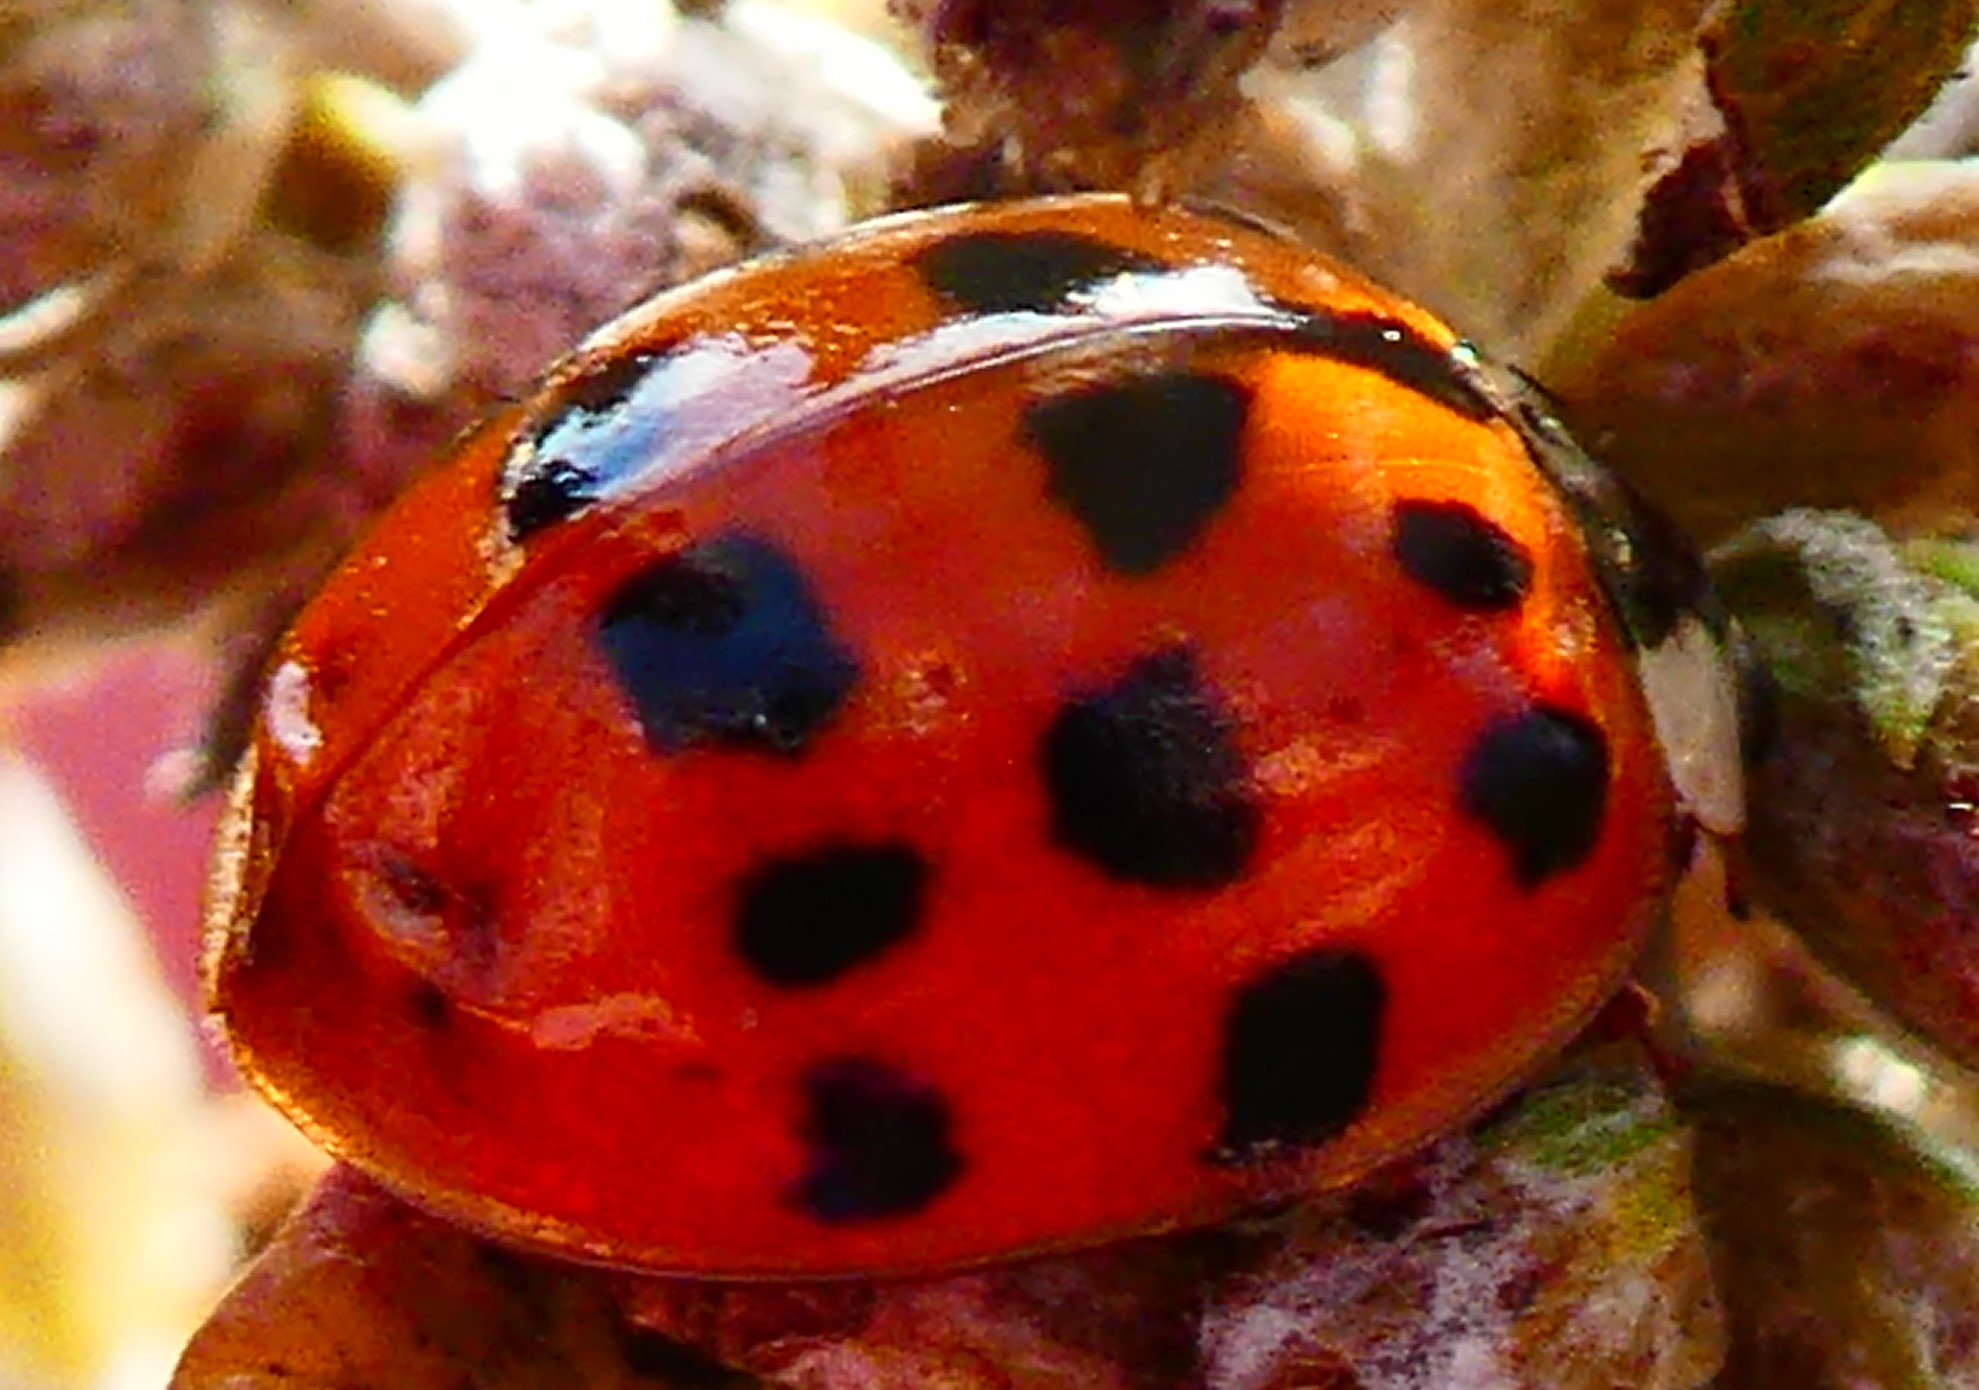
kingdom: Animalia
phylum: Arthropoda
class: Insecta
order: Coleoptera
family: Coccinellidae
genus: Harmonia
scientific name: Harmonia axyridis
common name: Harlequin ladybird
